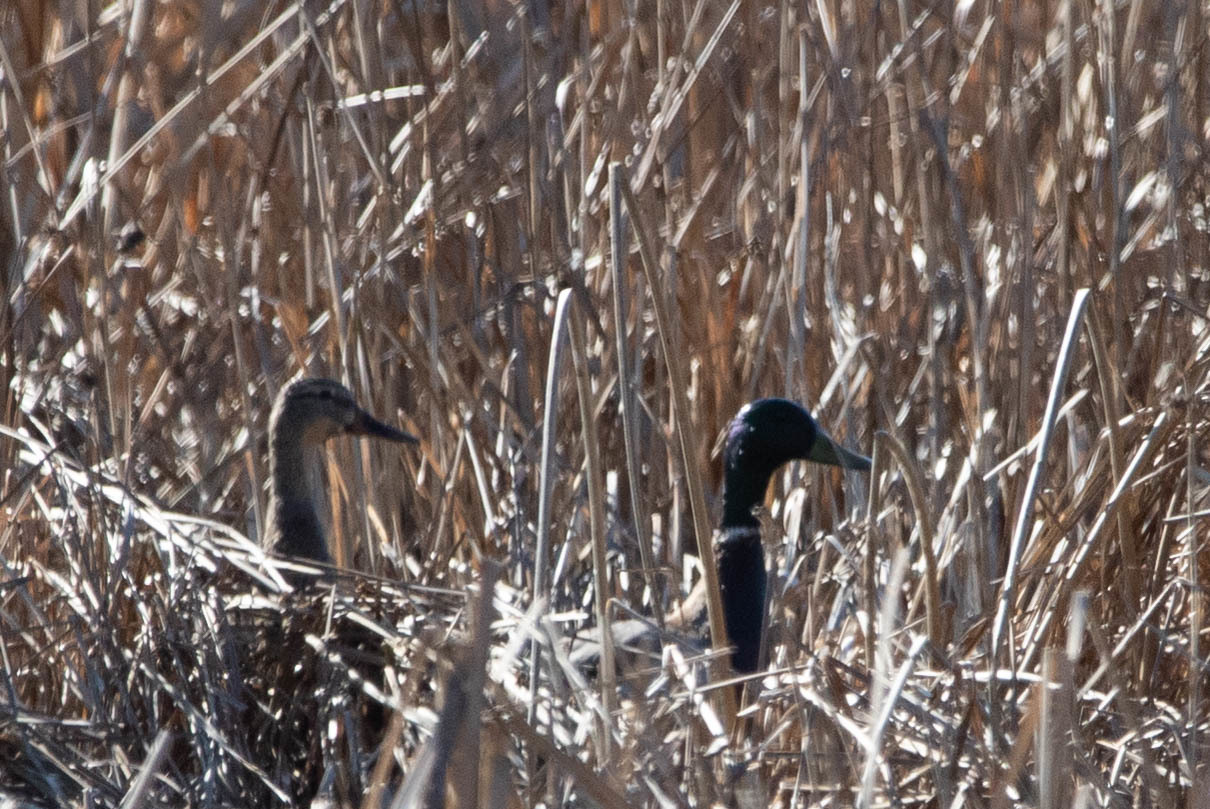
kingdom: Animalia
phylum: Chordata
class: Aves
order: Anseriformes
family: Anatidae
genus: Anas
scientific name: Anas platyrhynchos
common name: Mallard
